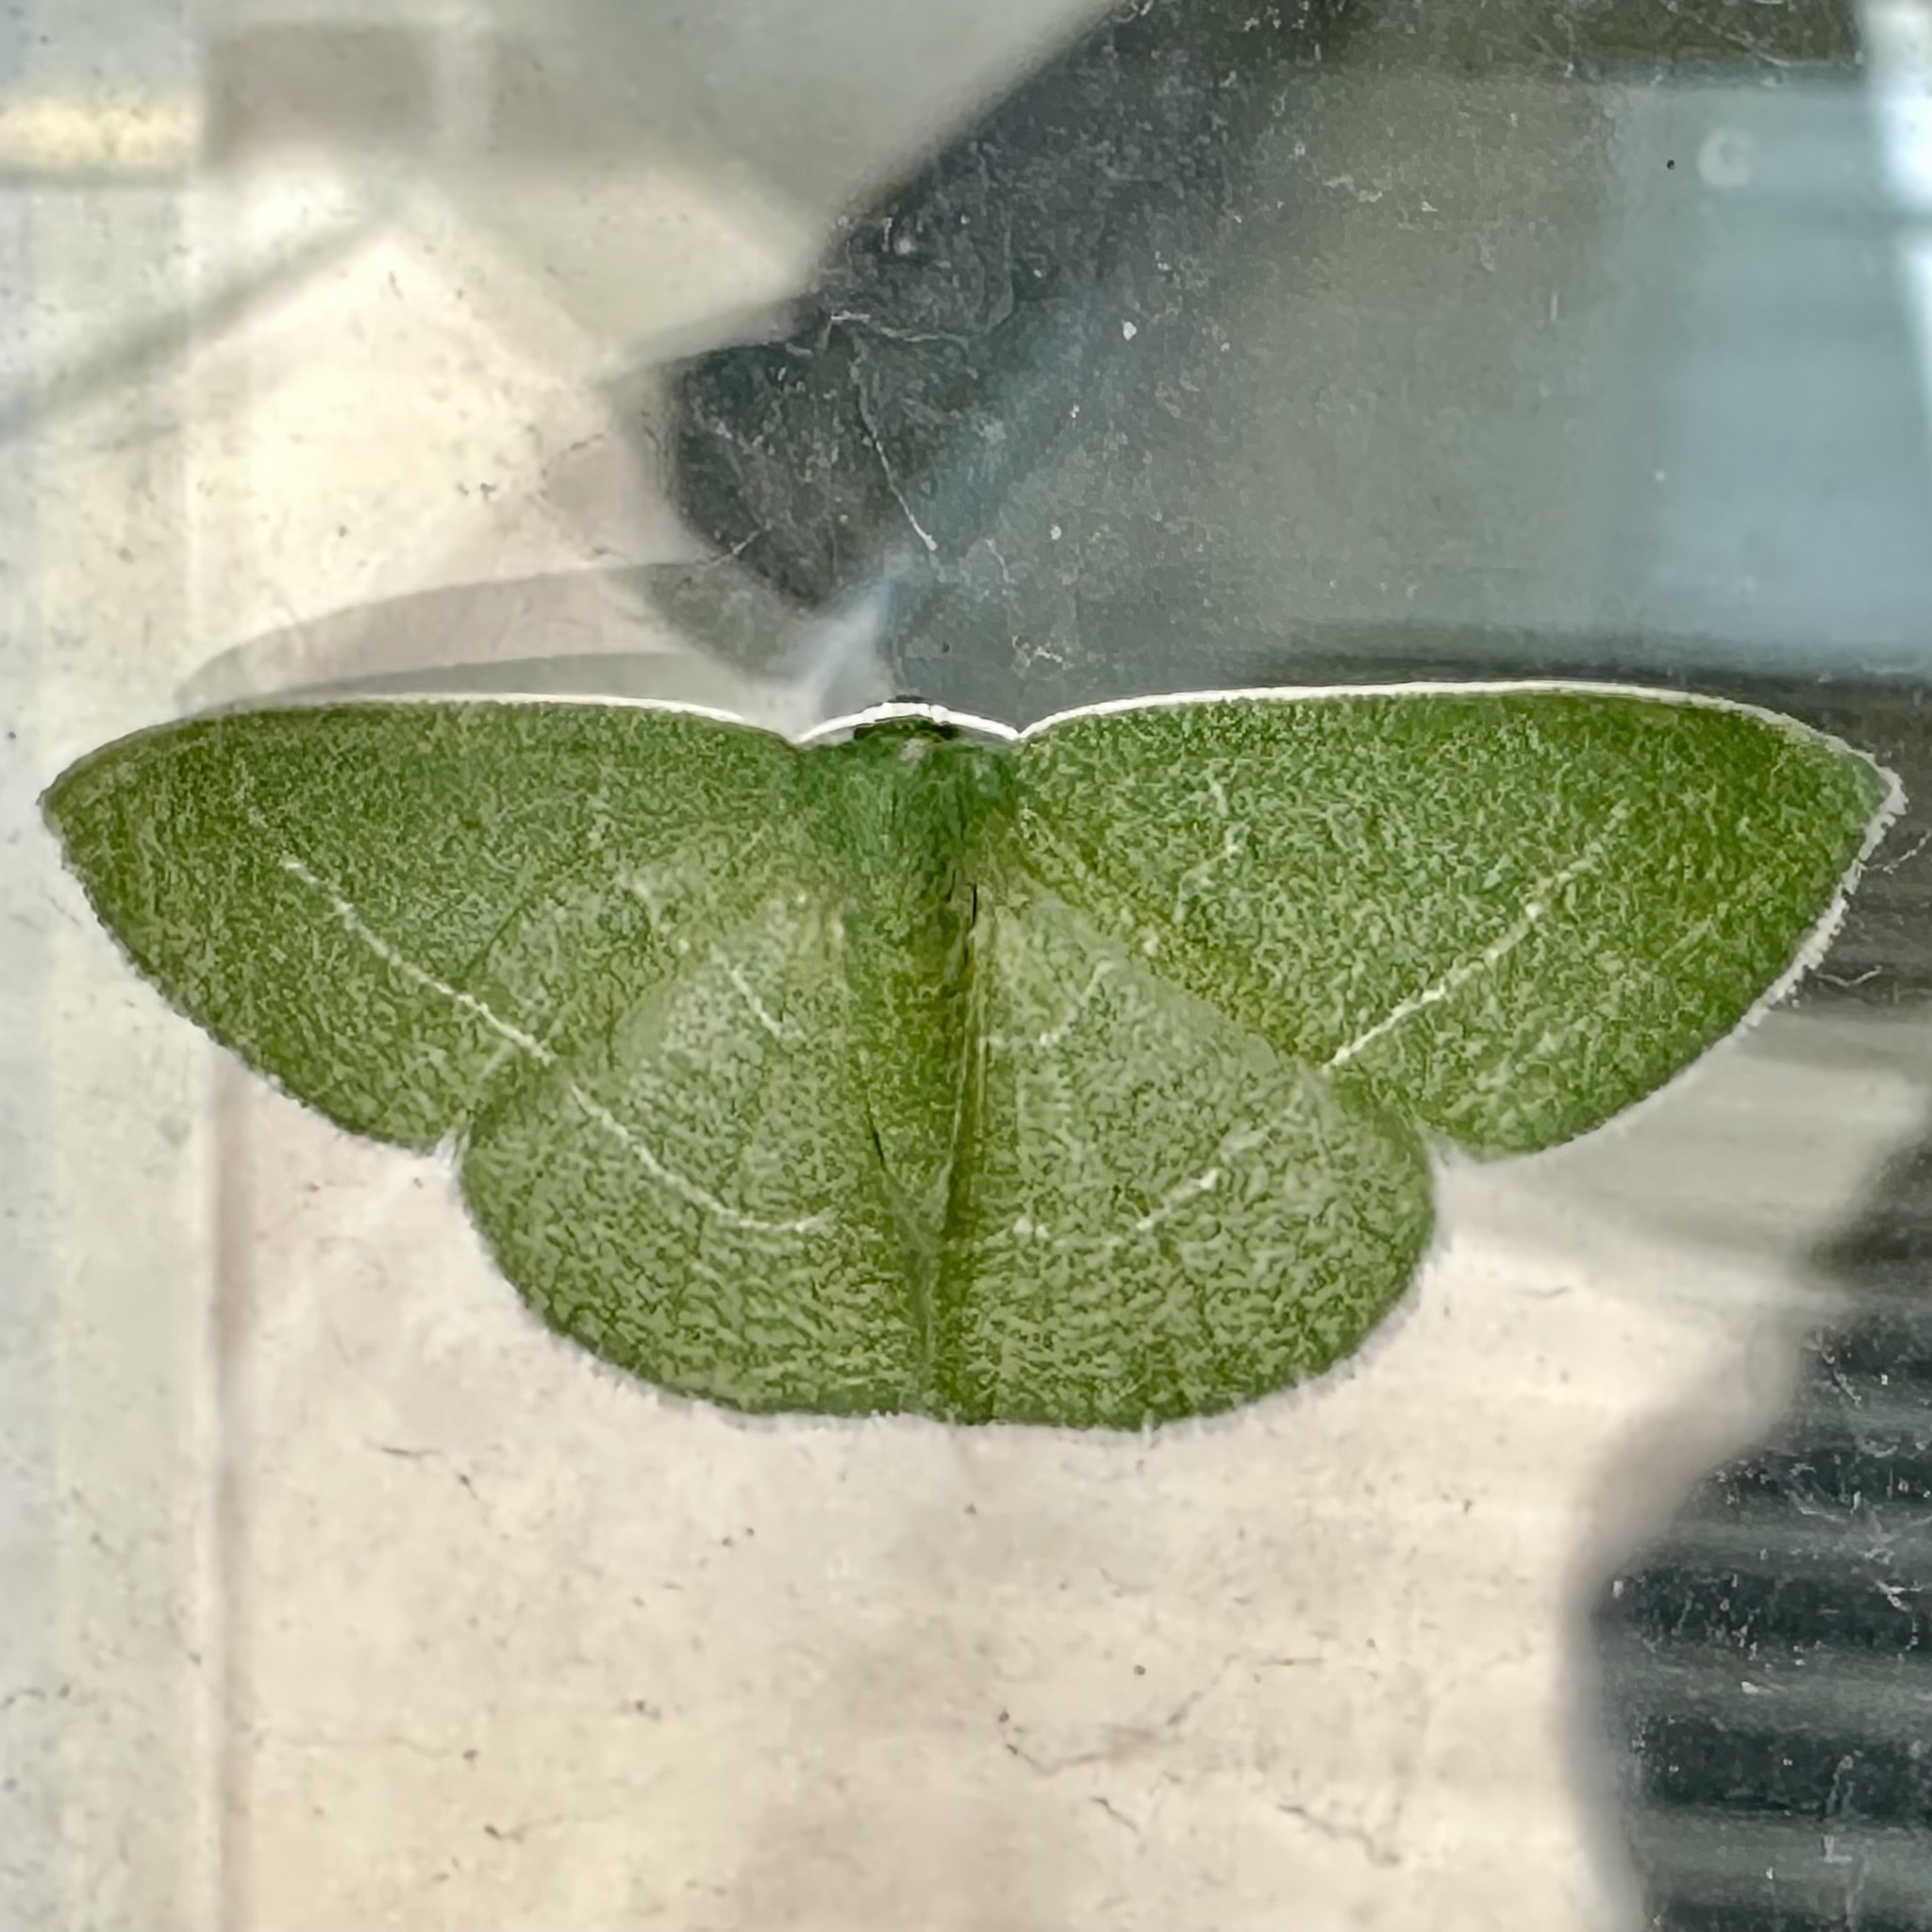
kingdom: Animalia
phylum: Arthropoda
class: Insecta
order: Lepidoptera
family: Geometridae
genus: Nemoria
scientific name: Nemoria zygotaria
